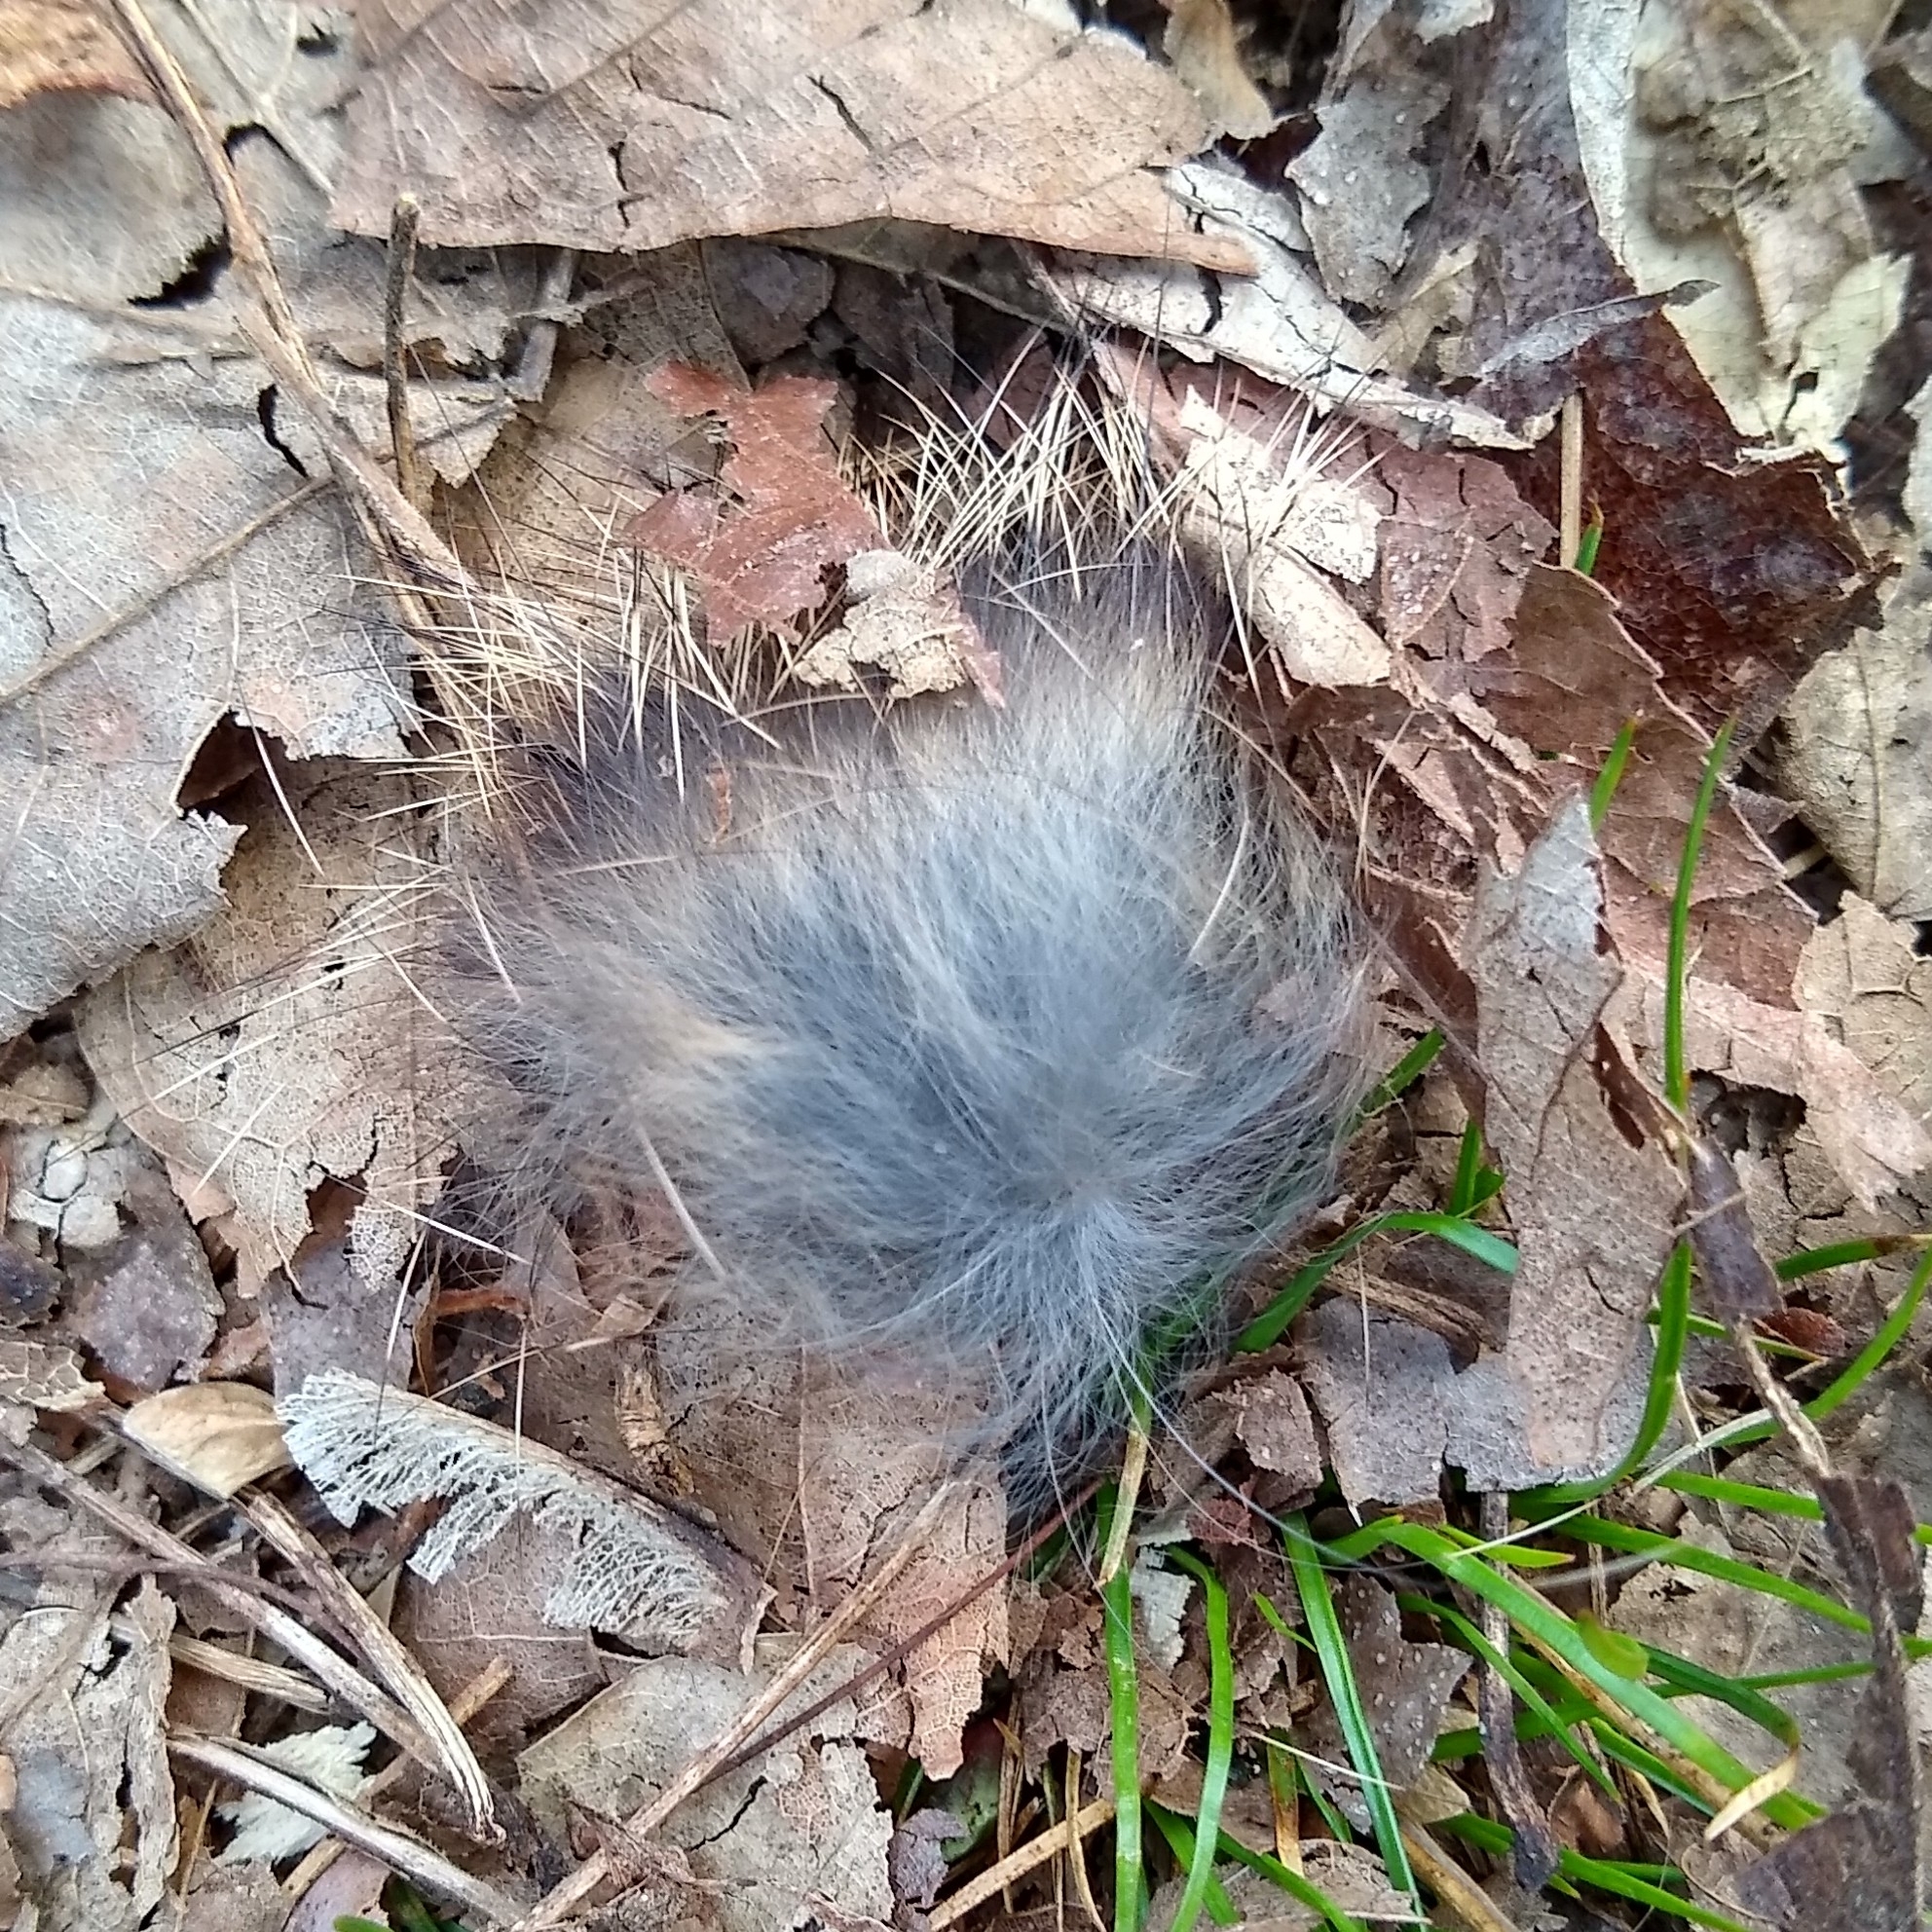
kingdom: Animalia
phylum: Chordata
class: Mammalia
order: Lagomorpha
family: Leporidae
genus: Sylvilagus
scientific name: Sylvilagus floridanus
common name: Eastern cottontail
